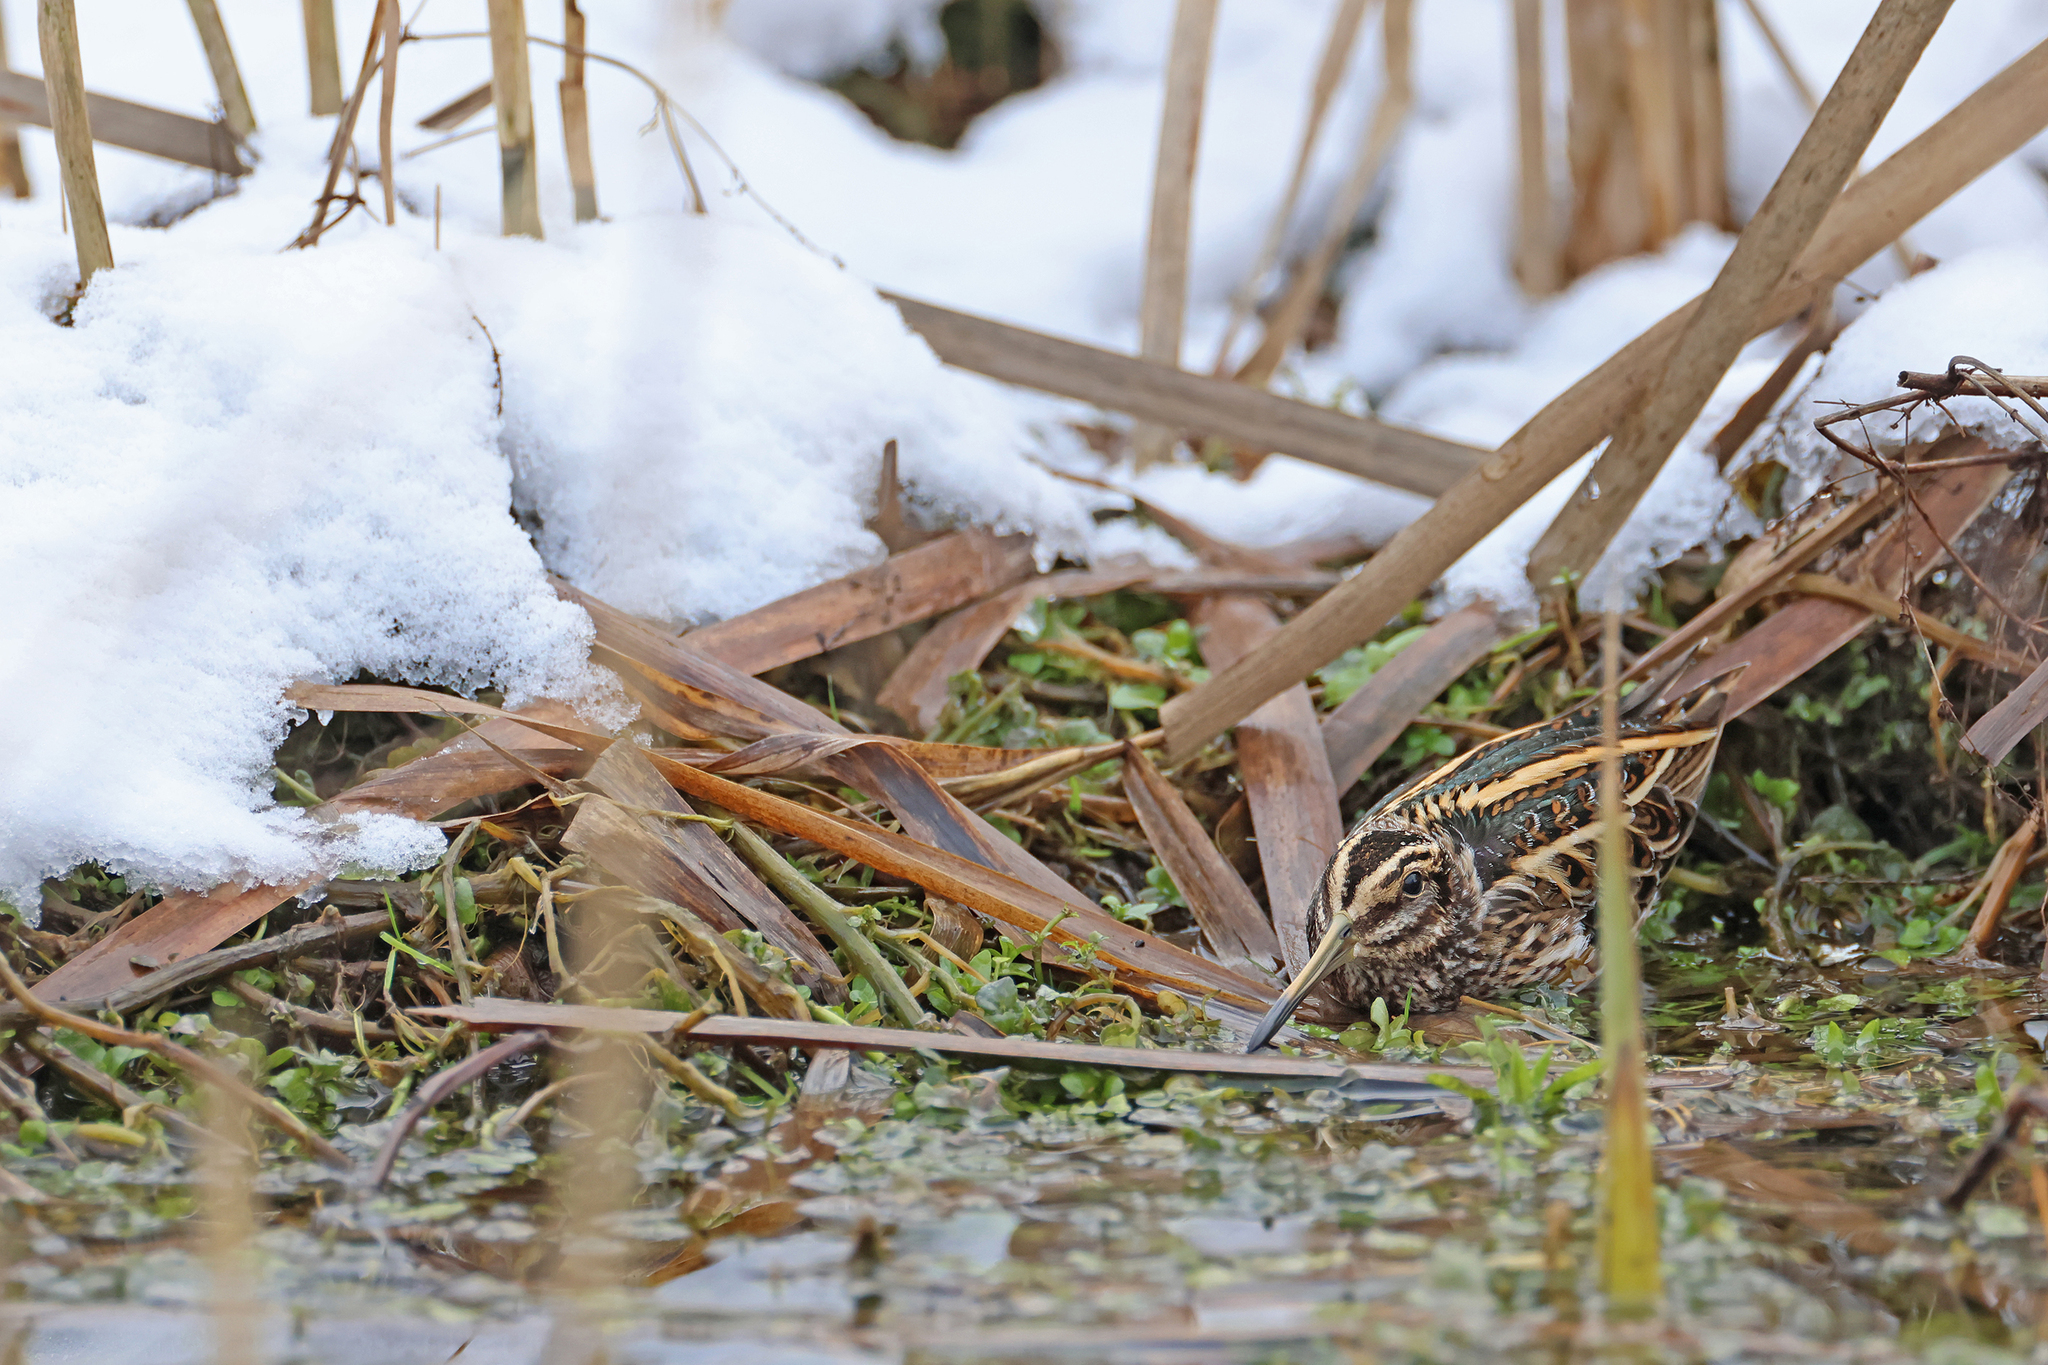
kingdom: Animalia
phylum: Chordata
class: Aves
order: Charadriiformes
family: Scolopacidae
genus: Lymnocryptes
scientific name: Lymnocryptes minimus
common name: Jack snipe
